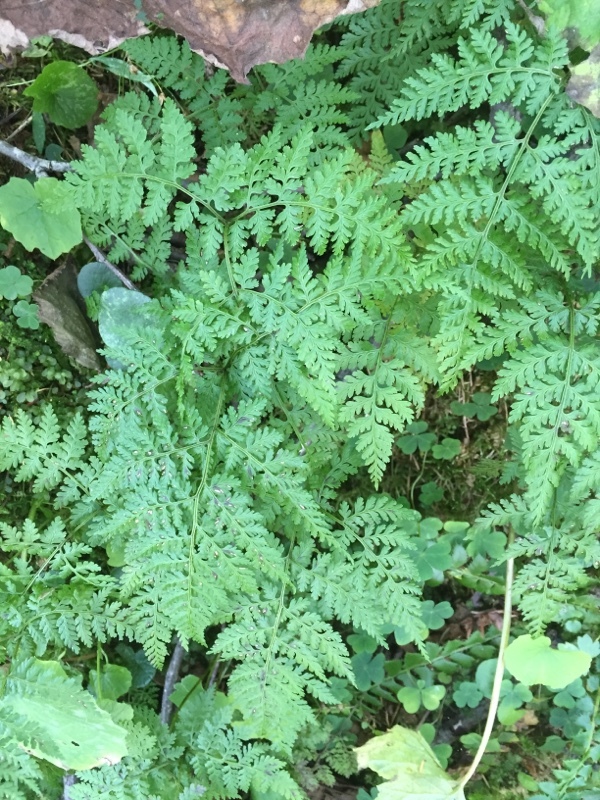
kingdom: Plantae
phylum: Tracheophyta
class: Polypodiopsida
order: Polypodiales
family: Cystopteridaceae
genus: Cystopteris
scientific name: Cystopteris montana
